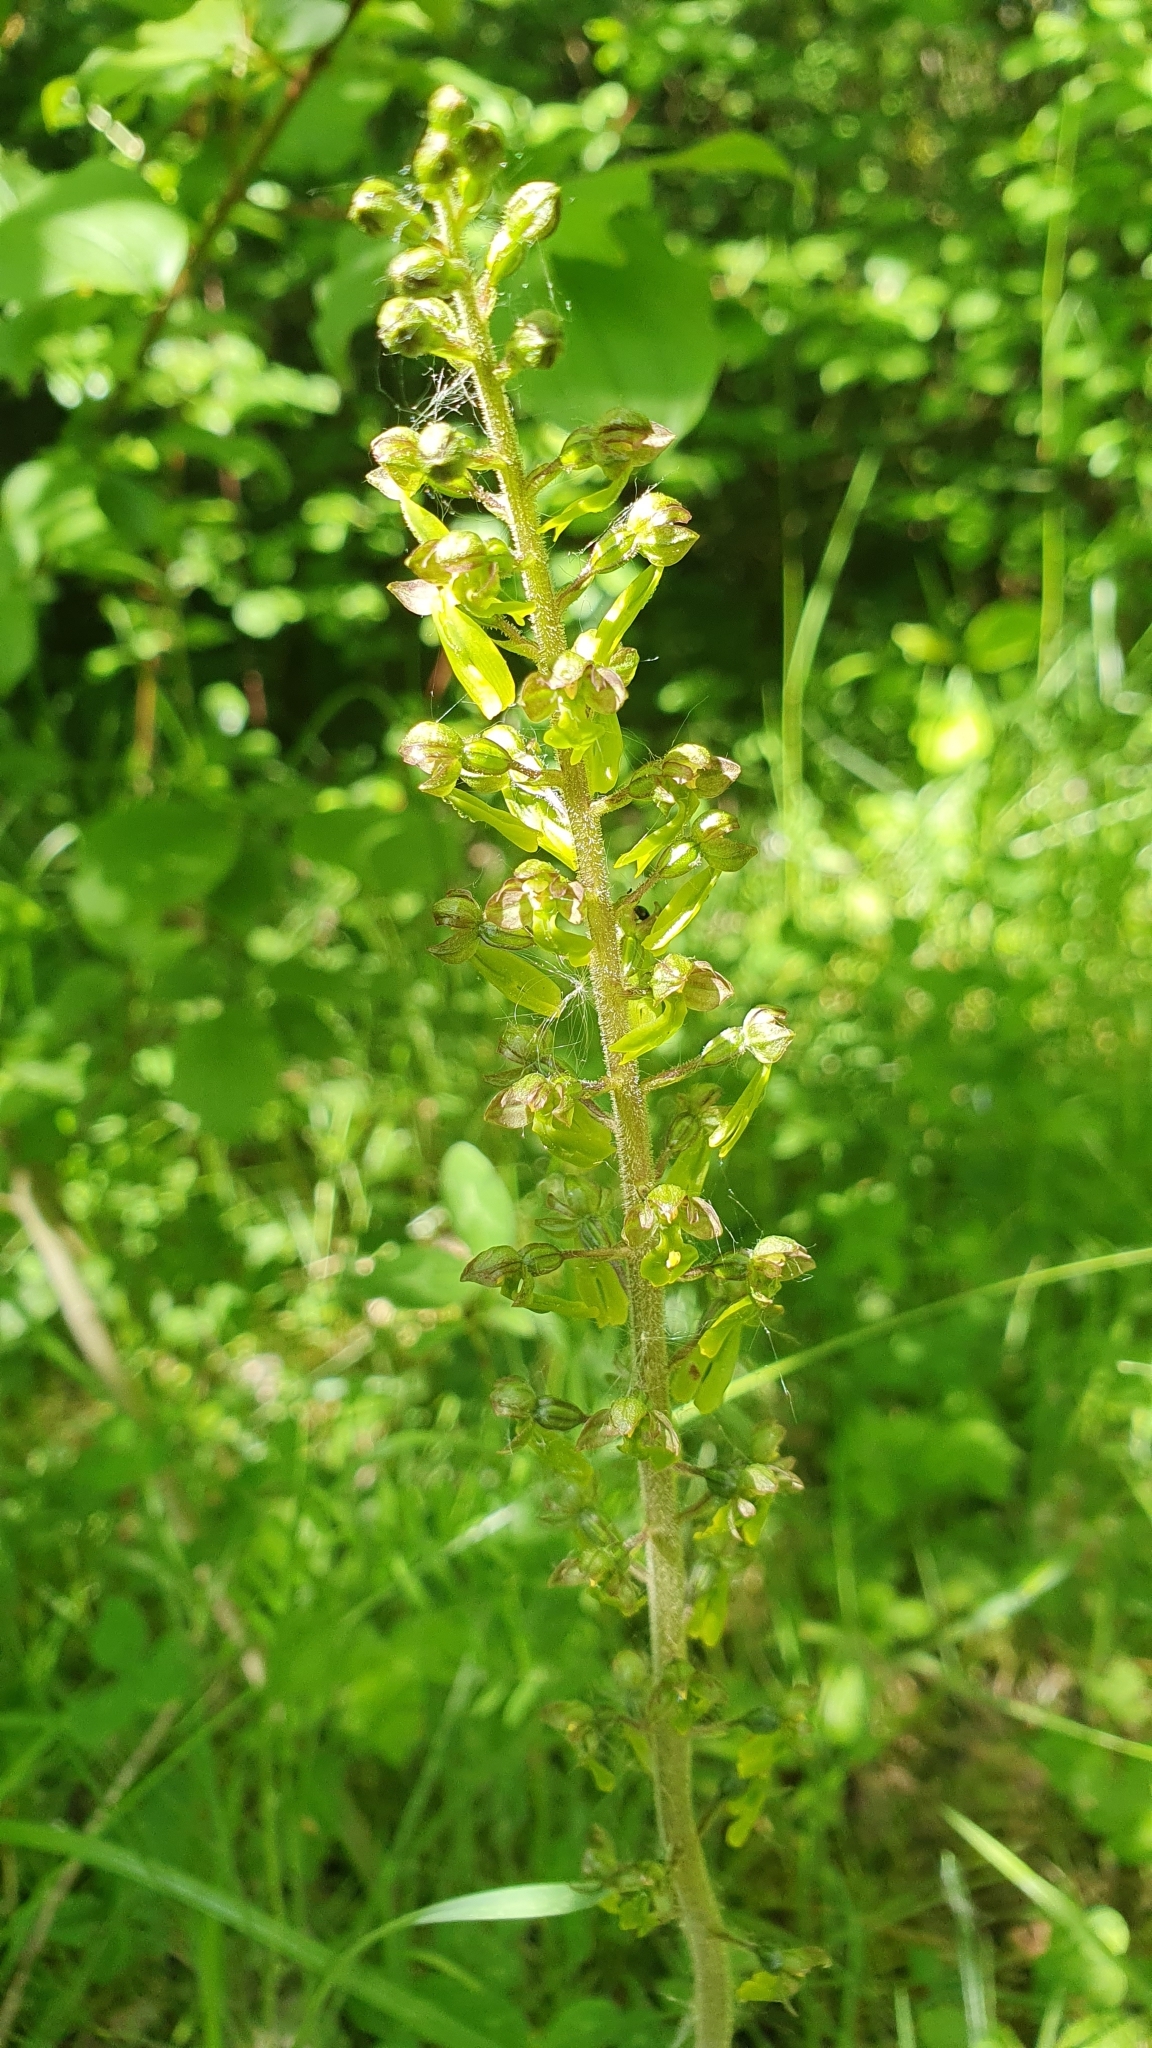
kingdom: Plantae
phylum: Tracheophyta
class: Liliopsida
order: Asparagales
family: Orchidaceae
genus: Neottia
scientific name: Neottia ovata
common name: Common twayblade
